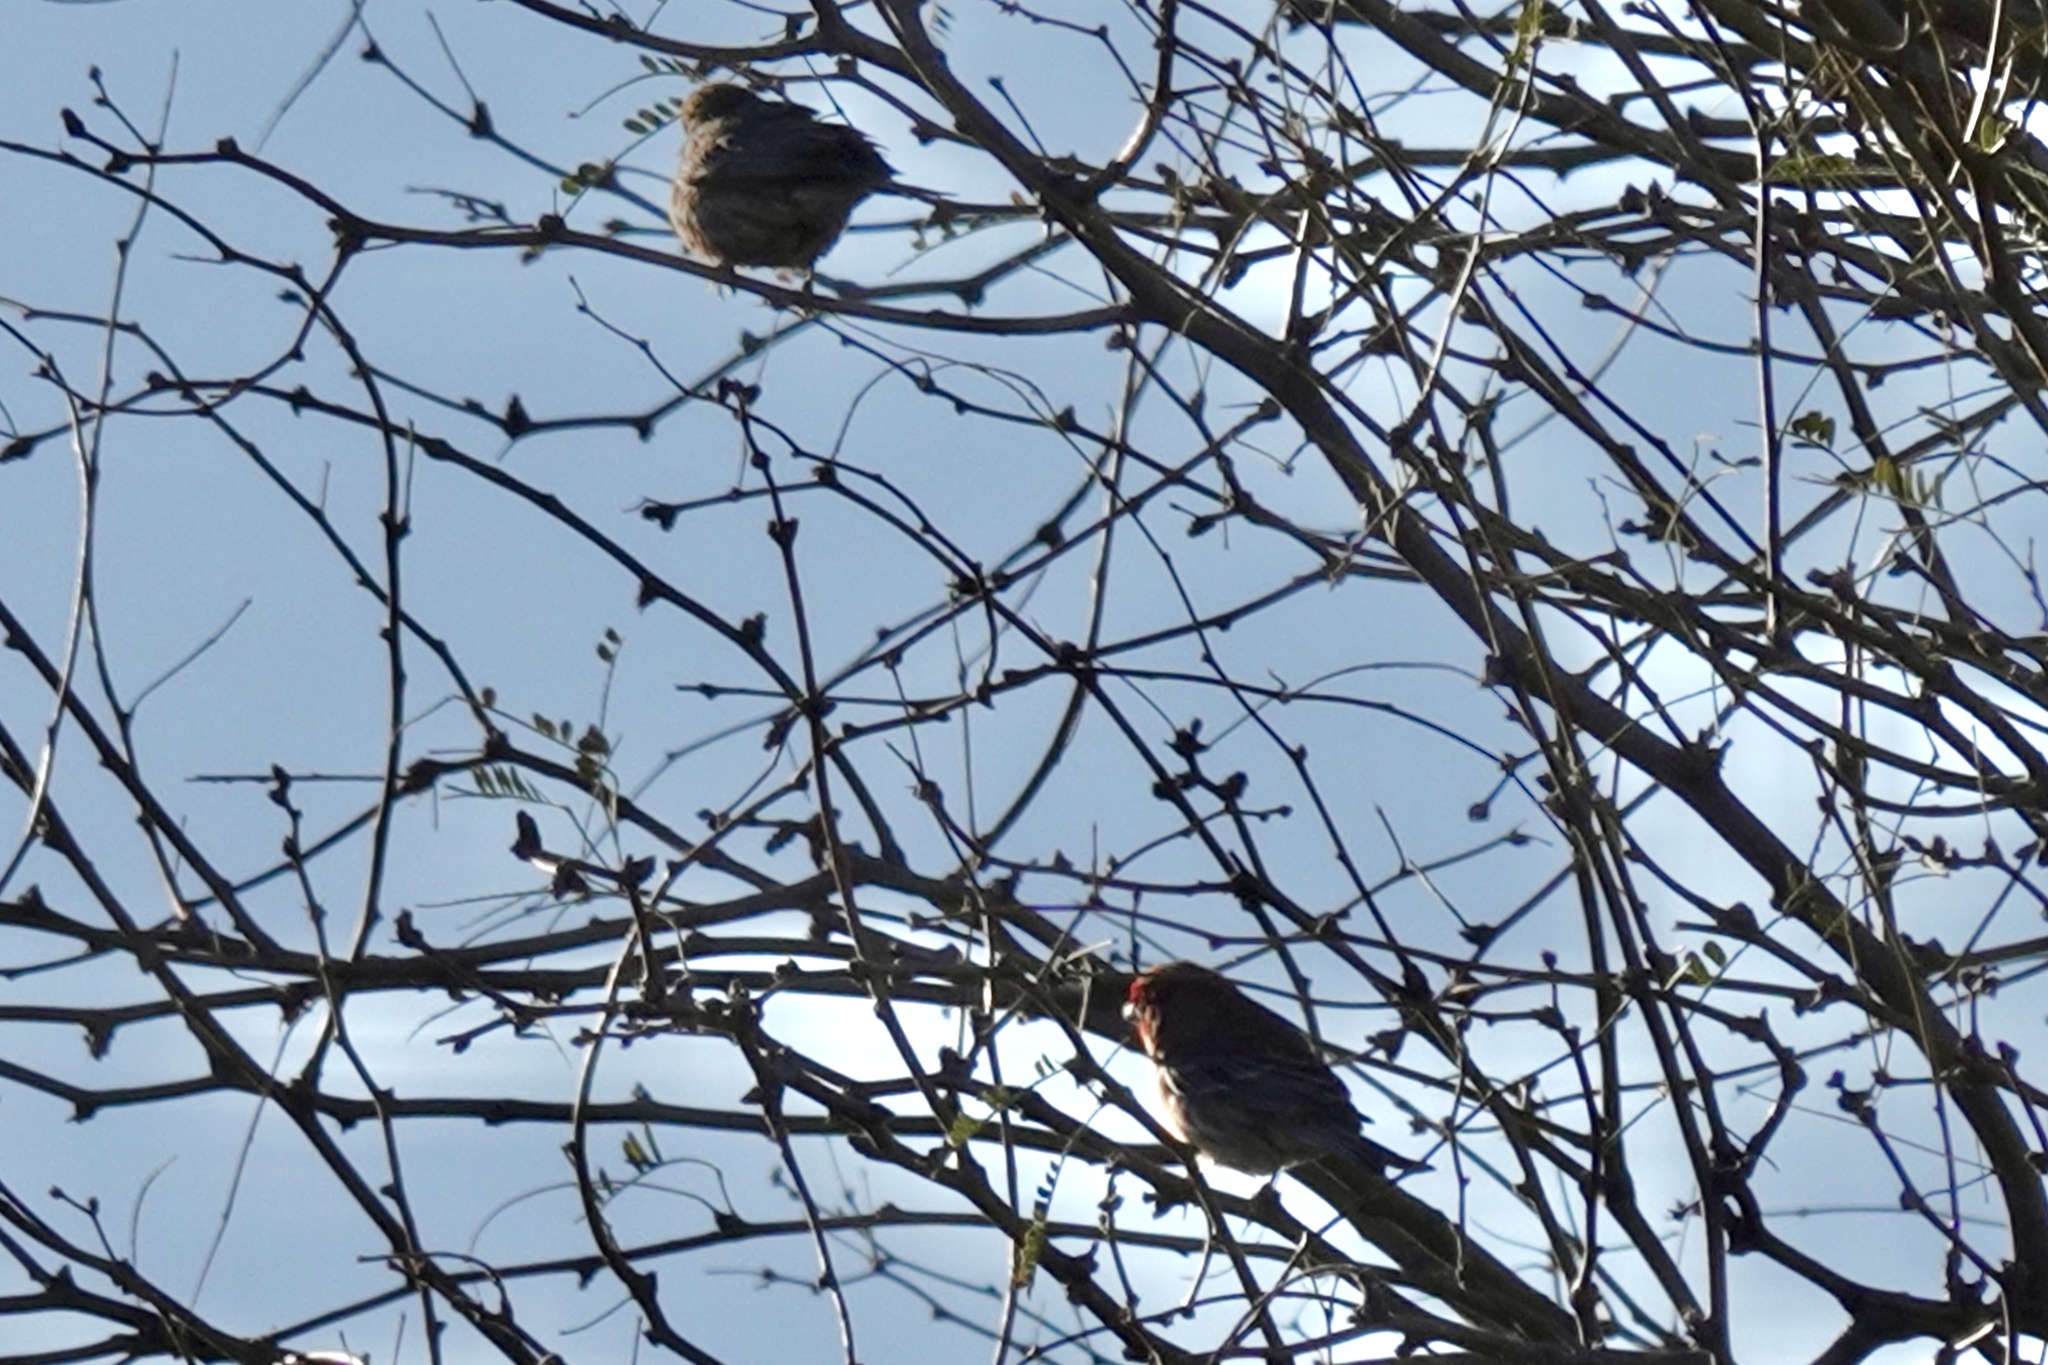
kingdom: Animalia
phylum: Chordata
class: Aves
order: Passeriformes
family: Fringillidae
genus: Haemorhous
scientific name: Haemorhous mexicanus
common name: House finch
